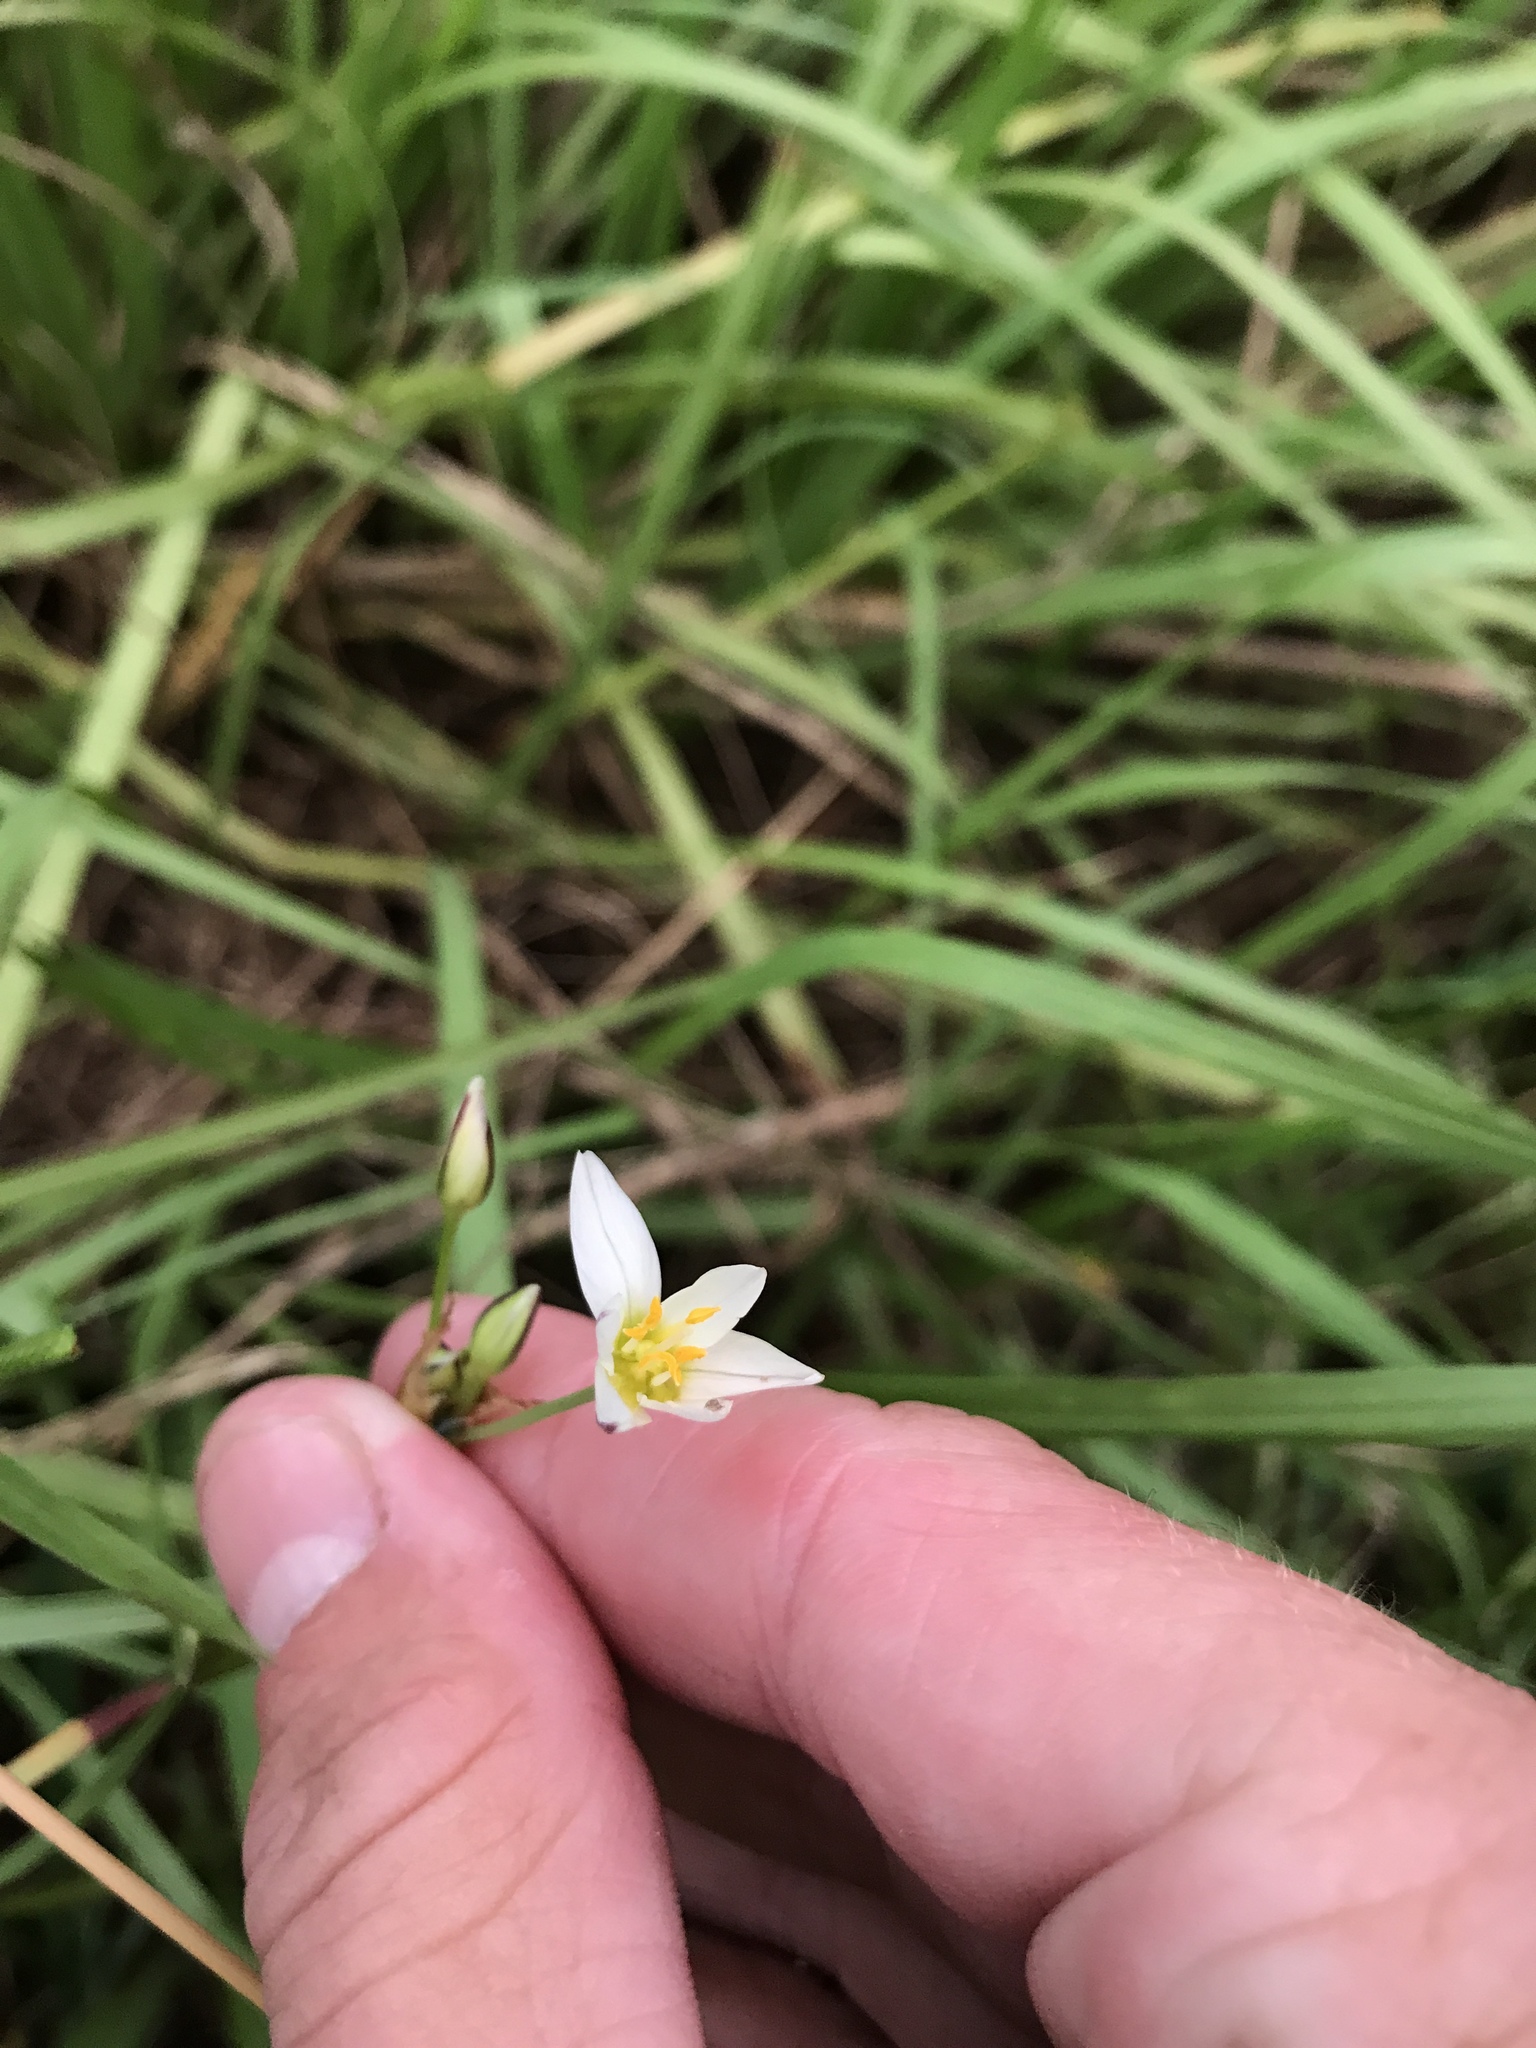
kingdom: Plantae
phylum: Tracheophyta
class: Liliopsida
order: Asparagales
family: Amaryllidaceae
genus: Nothoscordum
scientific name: Nothoscordum bivalve
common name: Crow-poison
